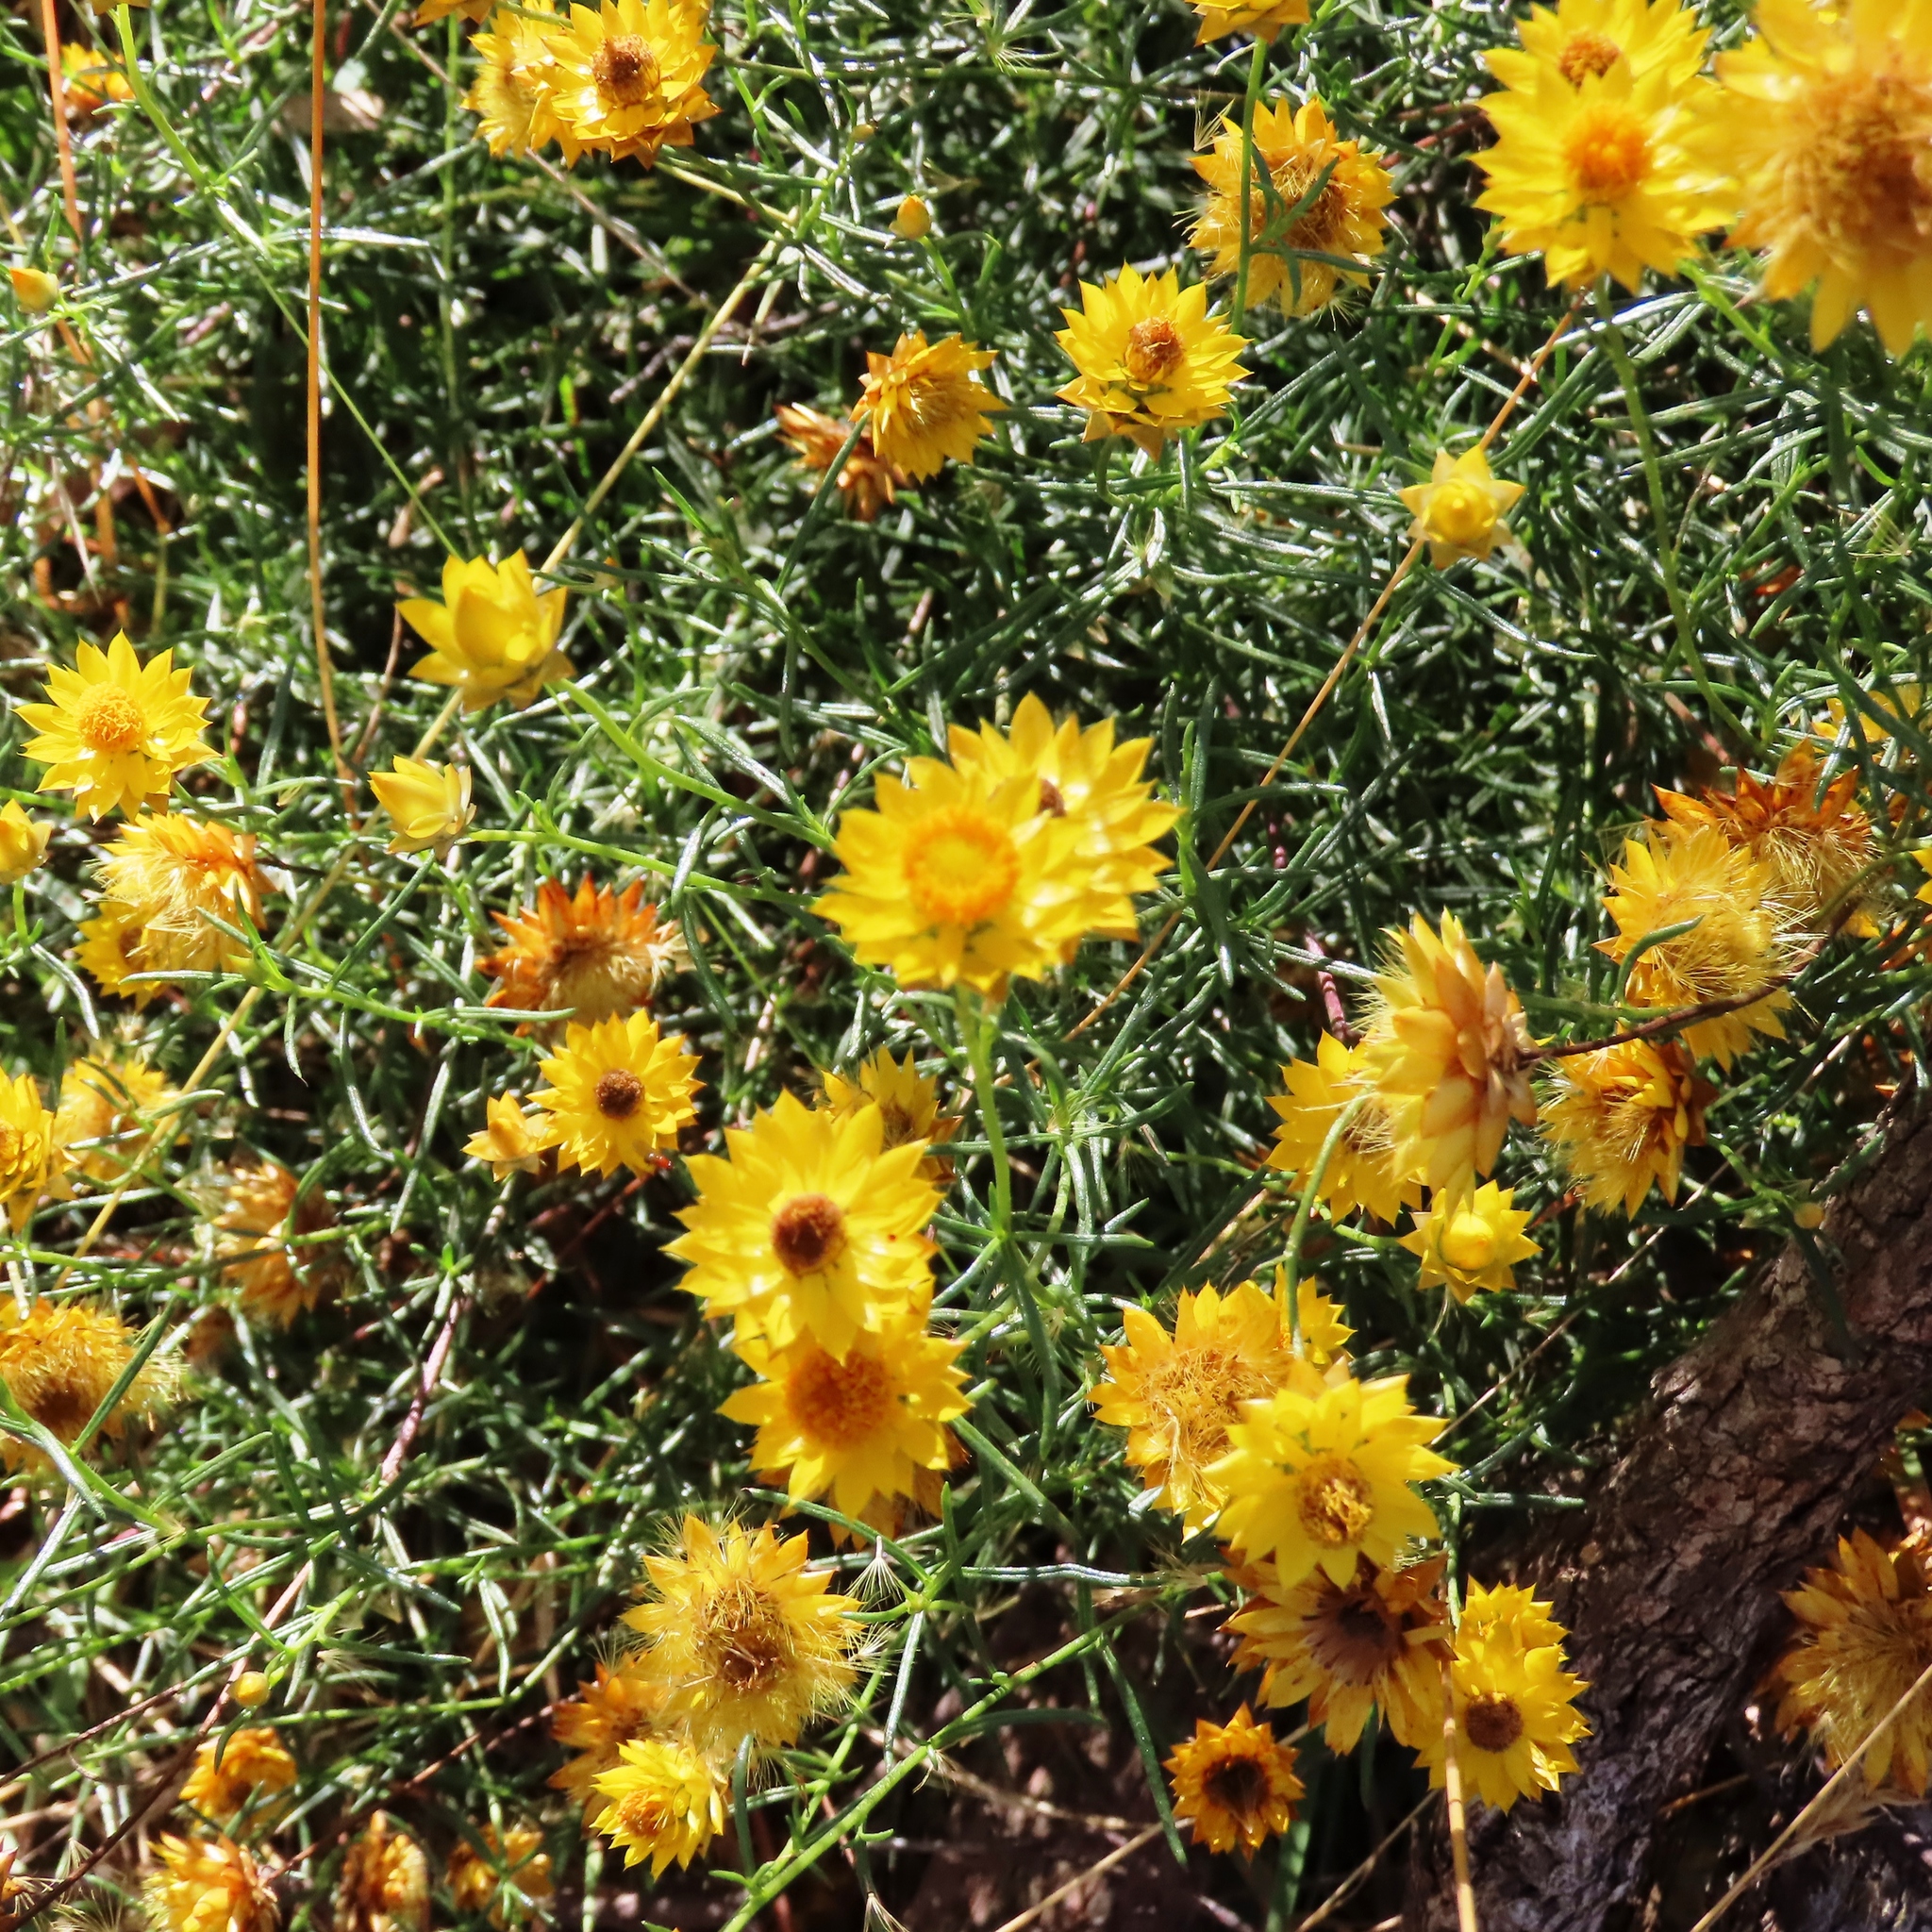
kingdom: Plantae
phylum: Tracheophyta
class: Magnoliopsida
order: Asterales
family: Asteraceae
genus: Xerochrysum
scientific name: Xerochrysum viscosum
